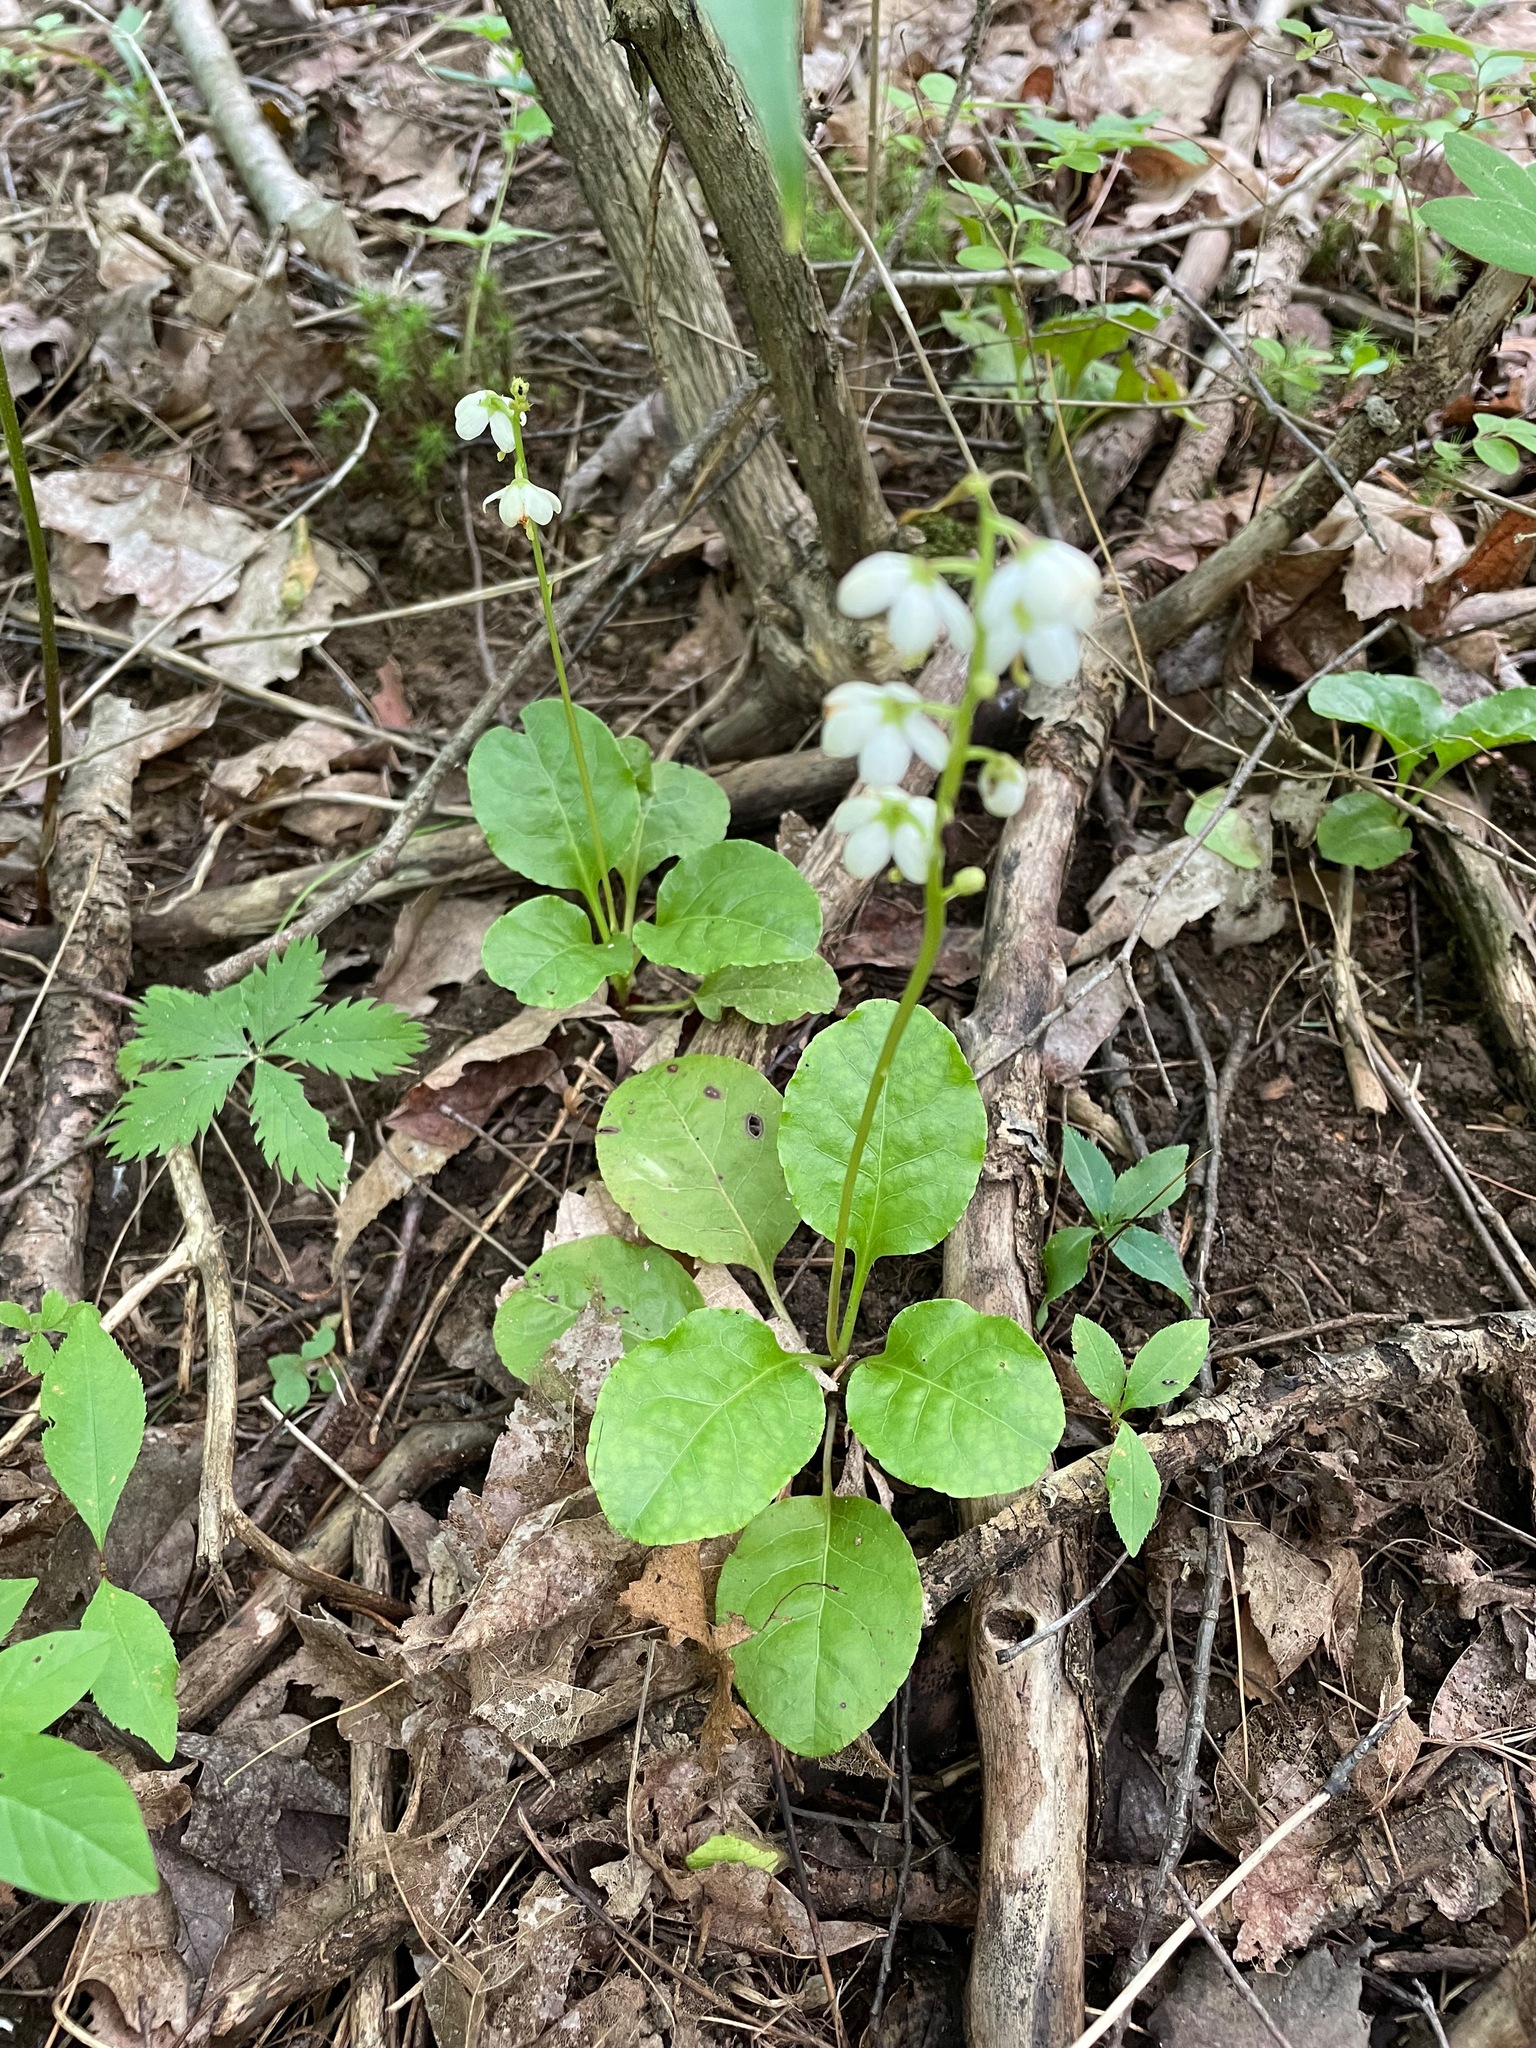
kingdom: Plantae
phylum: Tracheophyta
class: Magnoliopsida
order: Ericales
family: Ericaceae
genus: Pyrola
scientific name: Pyrola elliptica
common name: Shinleaf
